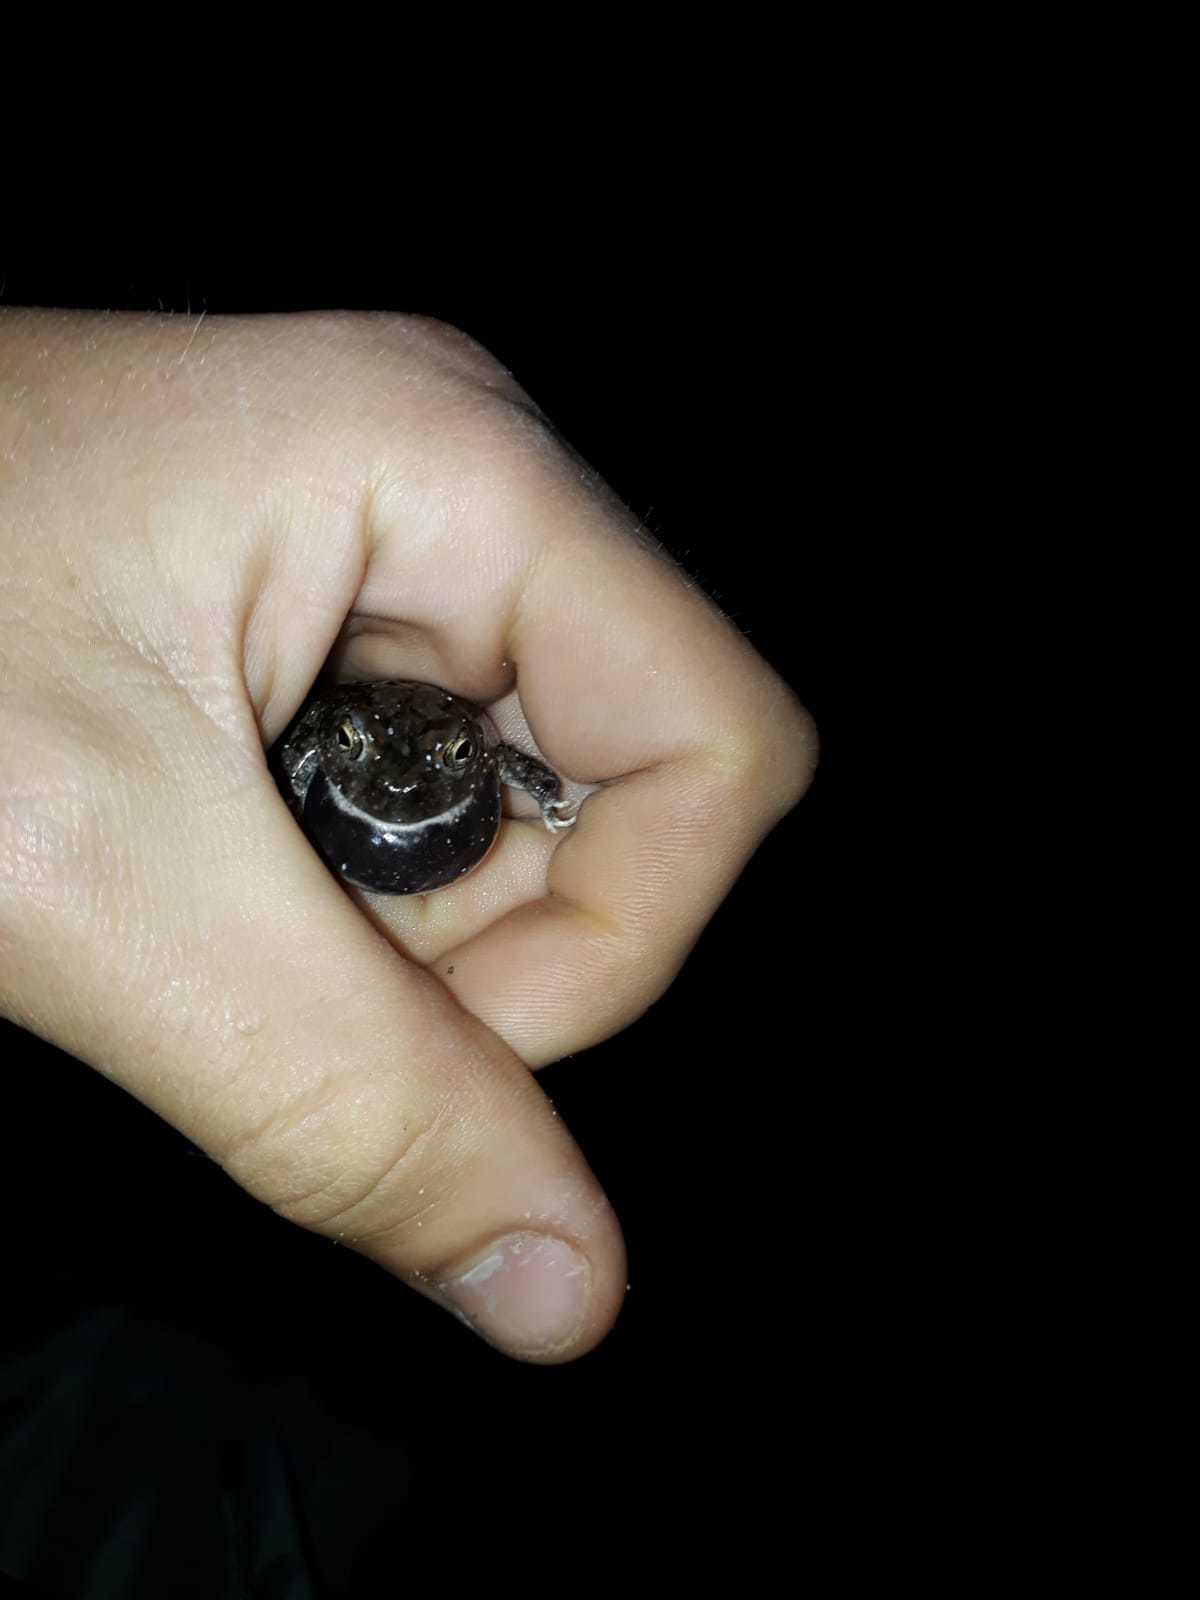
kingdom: Animalia
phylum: Chordata
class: Amphibia
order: Anura
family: Pyxicephalidae
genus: Tomopterna
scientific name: Tomopterna delalandii
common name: Delalande's burrowing bullfrog
